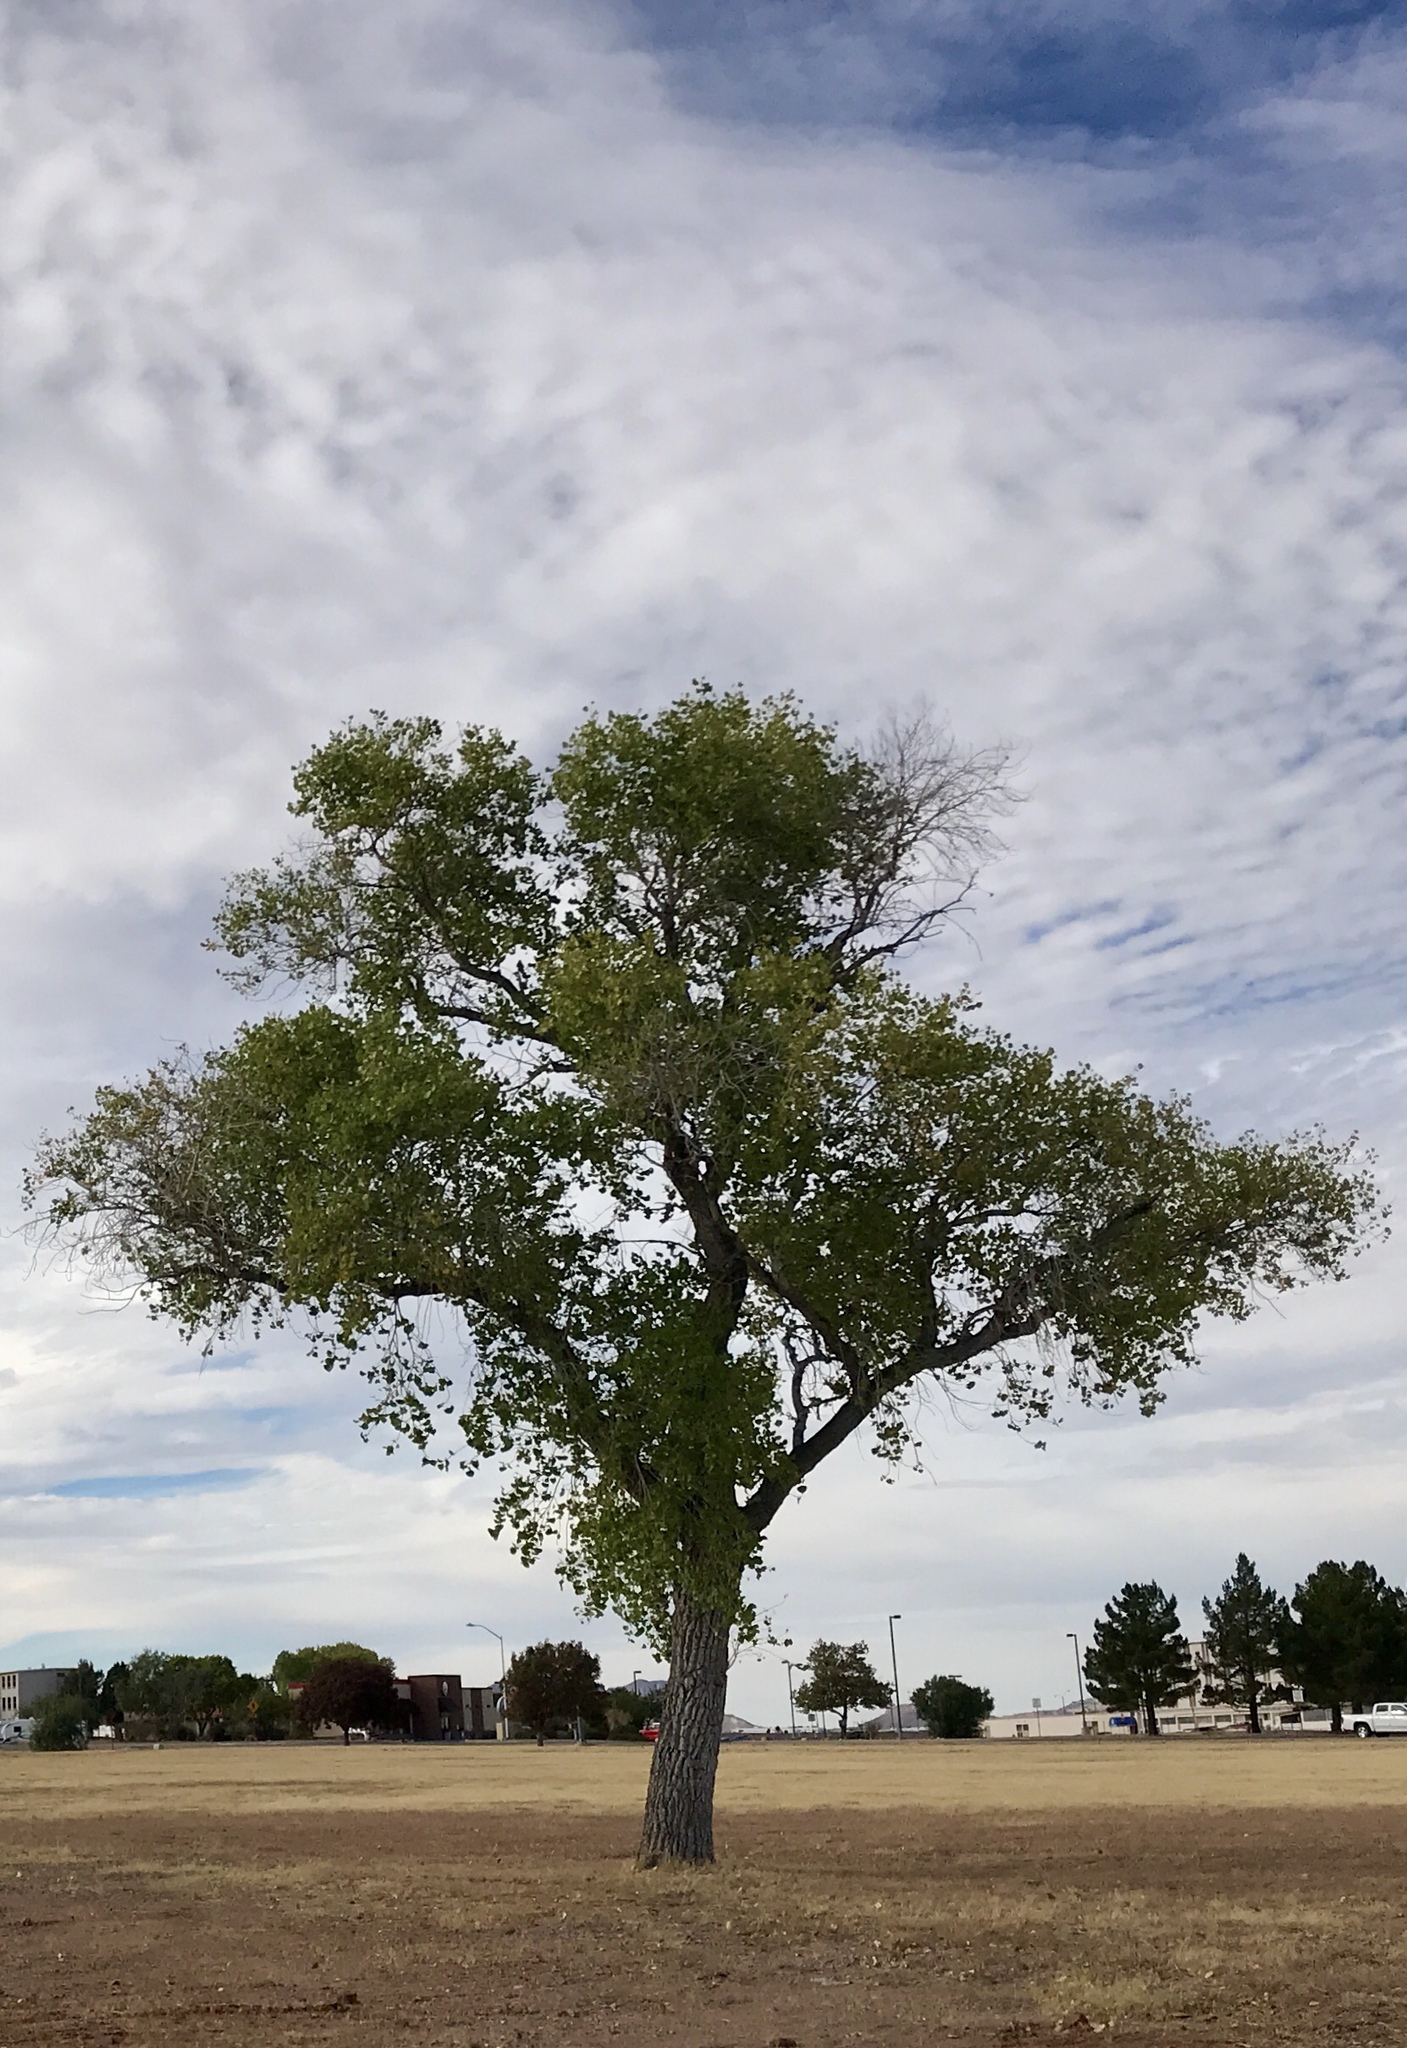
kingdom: Plantae
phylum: Tracheophyta
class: Magnoliopsida
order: Malpighiales
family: Salicaceae
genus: Populus
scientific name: Populus fremontii
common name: Fremont's cottonwood
